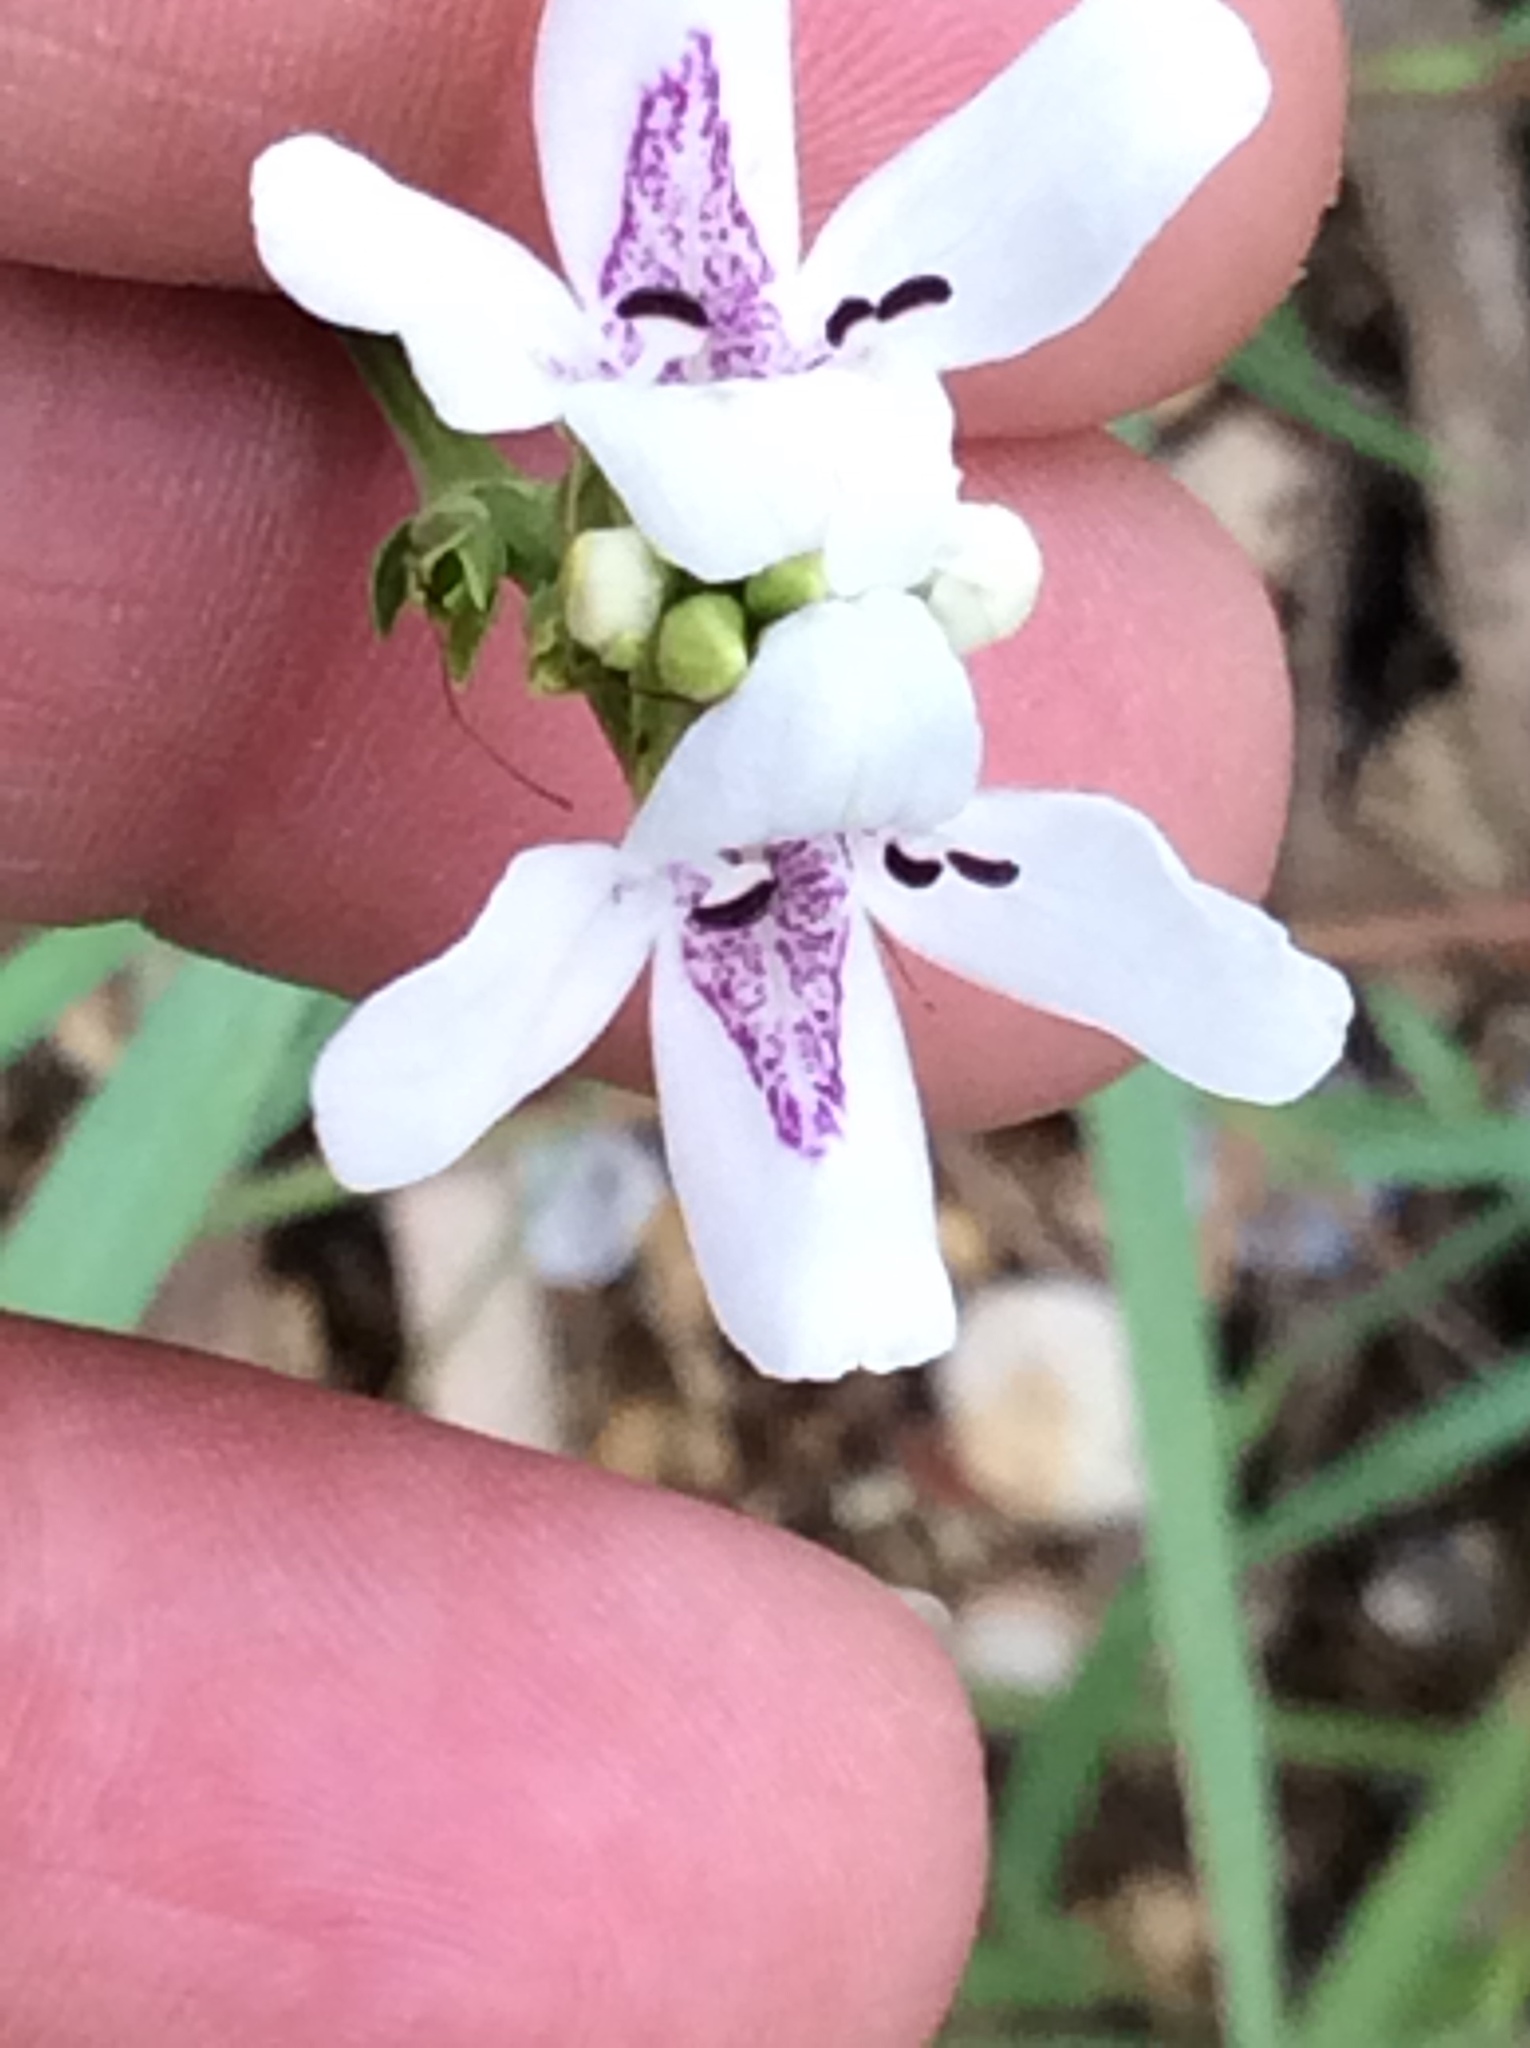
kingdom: Plantae
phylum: Tracheophyta
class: Magnoliopsida
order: Lamiales
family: Acanthaceae
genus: Dianthera
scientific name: Dianthera americana
